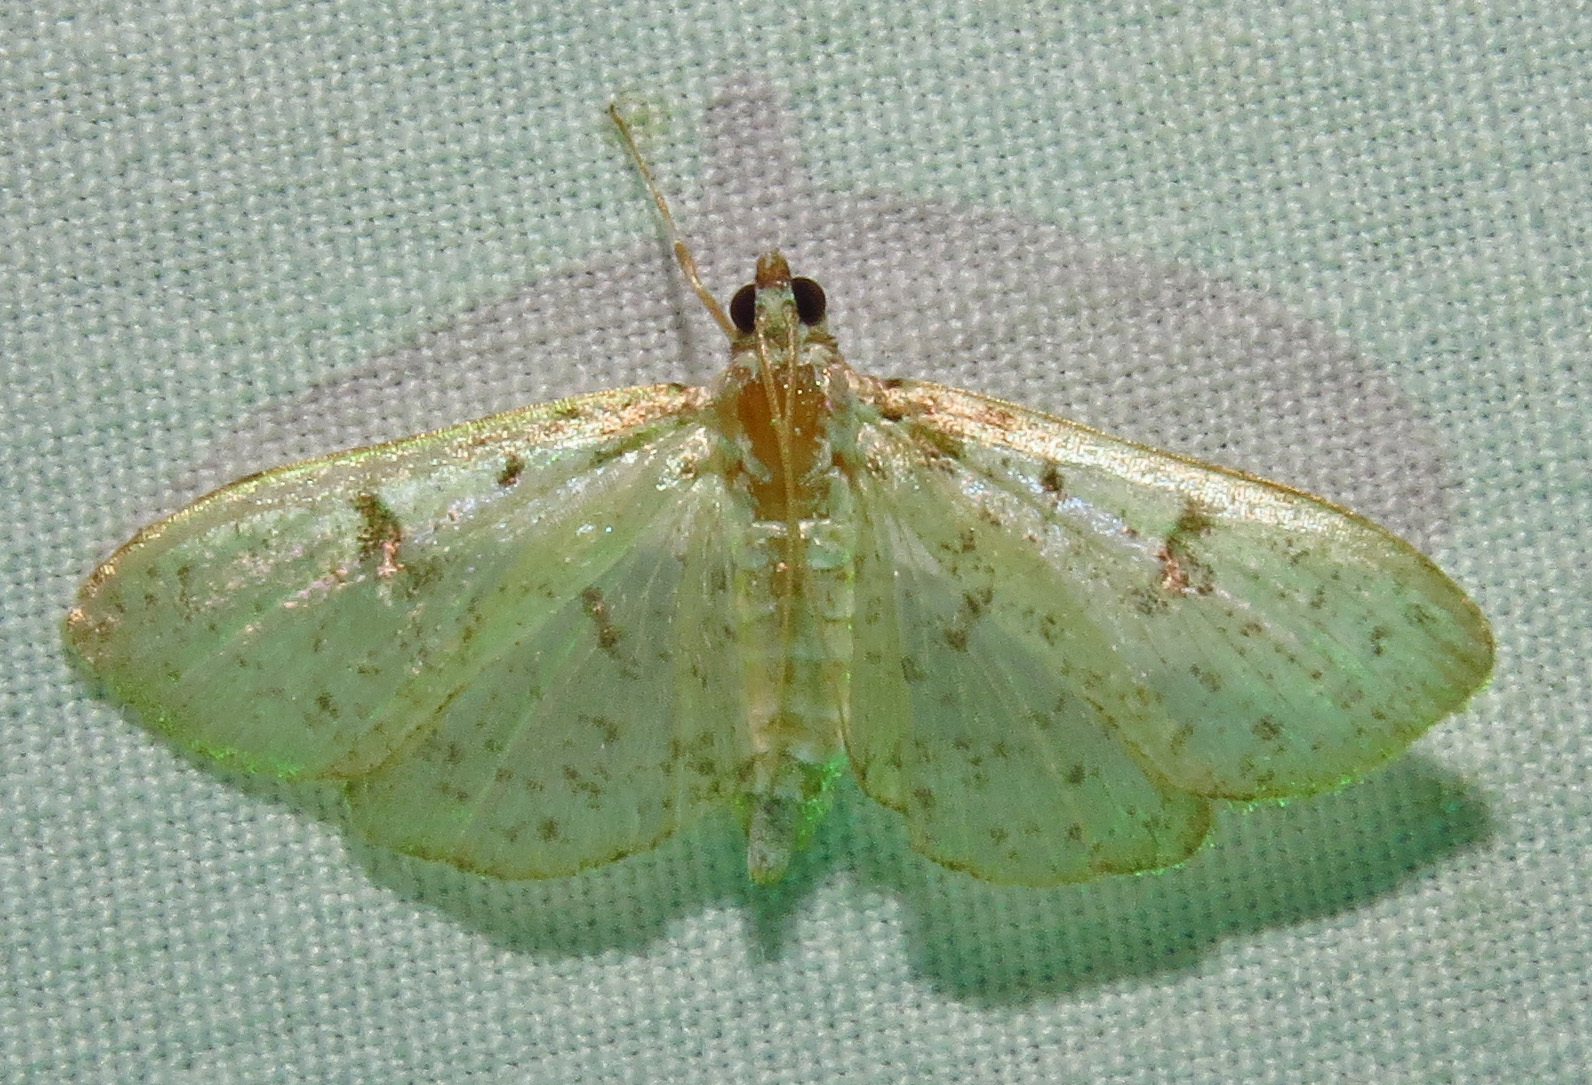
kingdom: Animalia
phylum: Arthropoda
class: Insecta
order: Lepidoptera
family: Crambidae
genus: Palpita
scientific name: Palpita freemanalis
